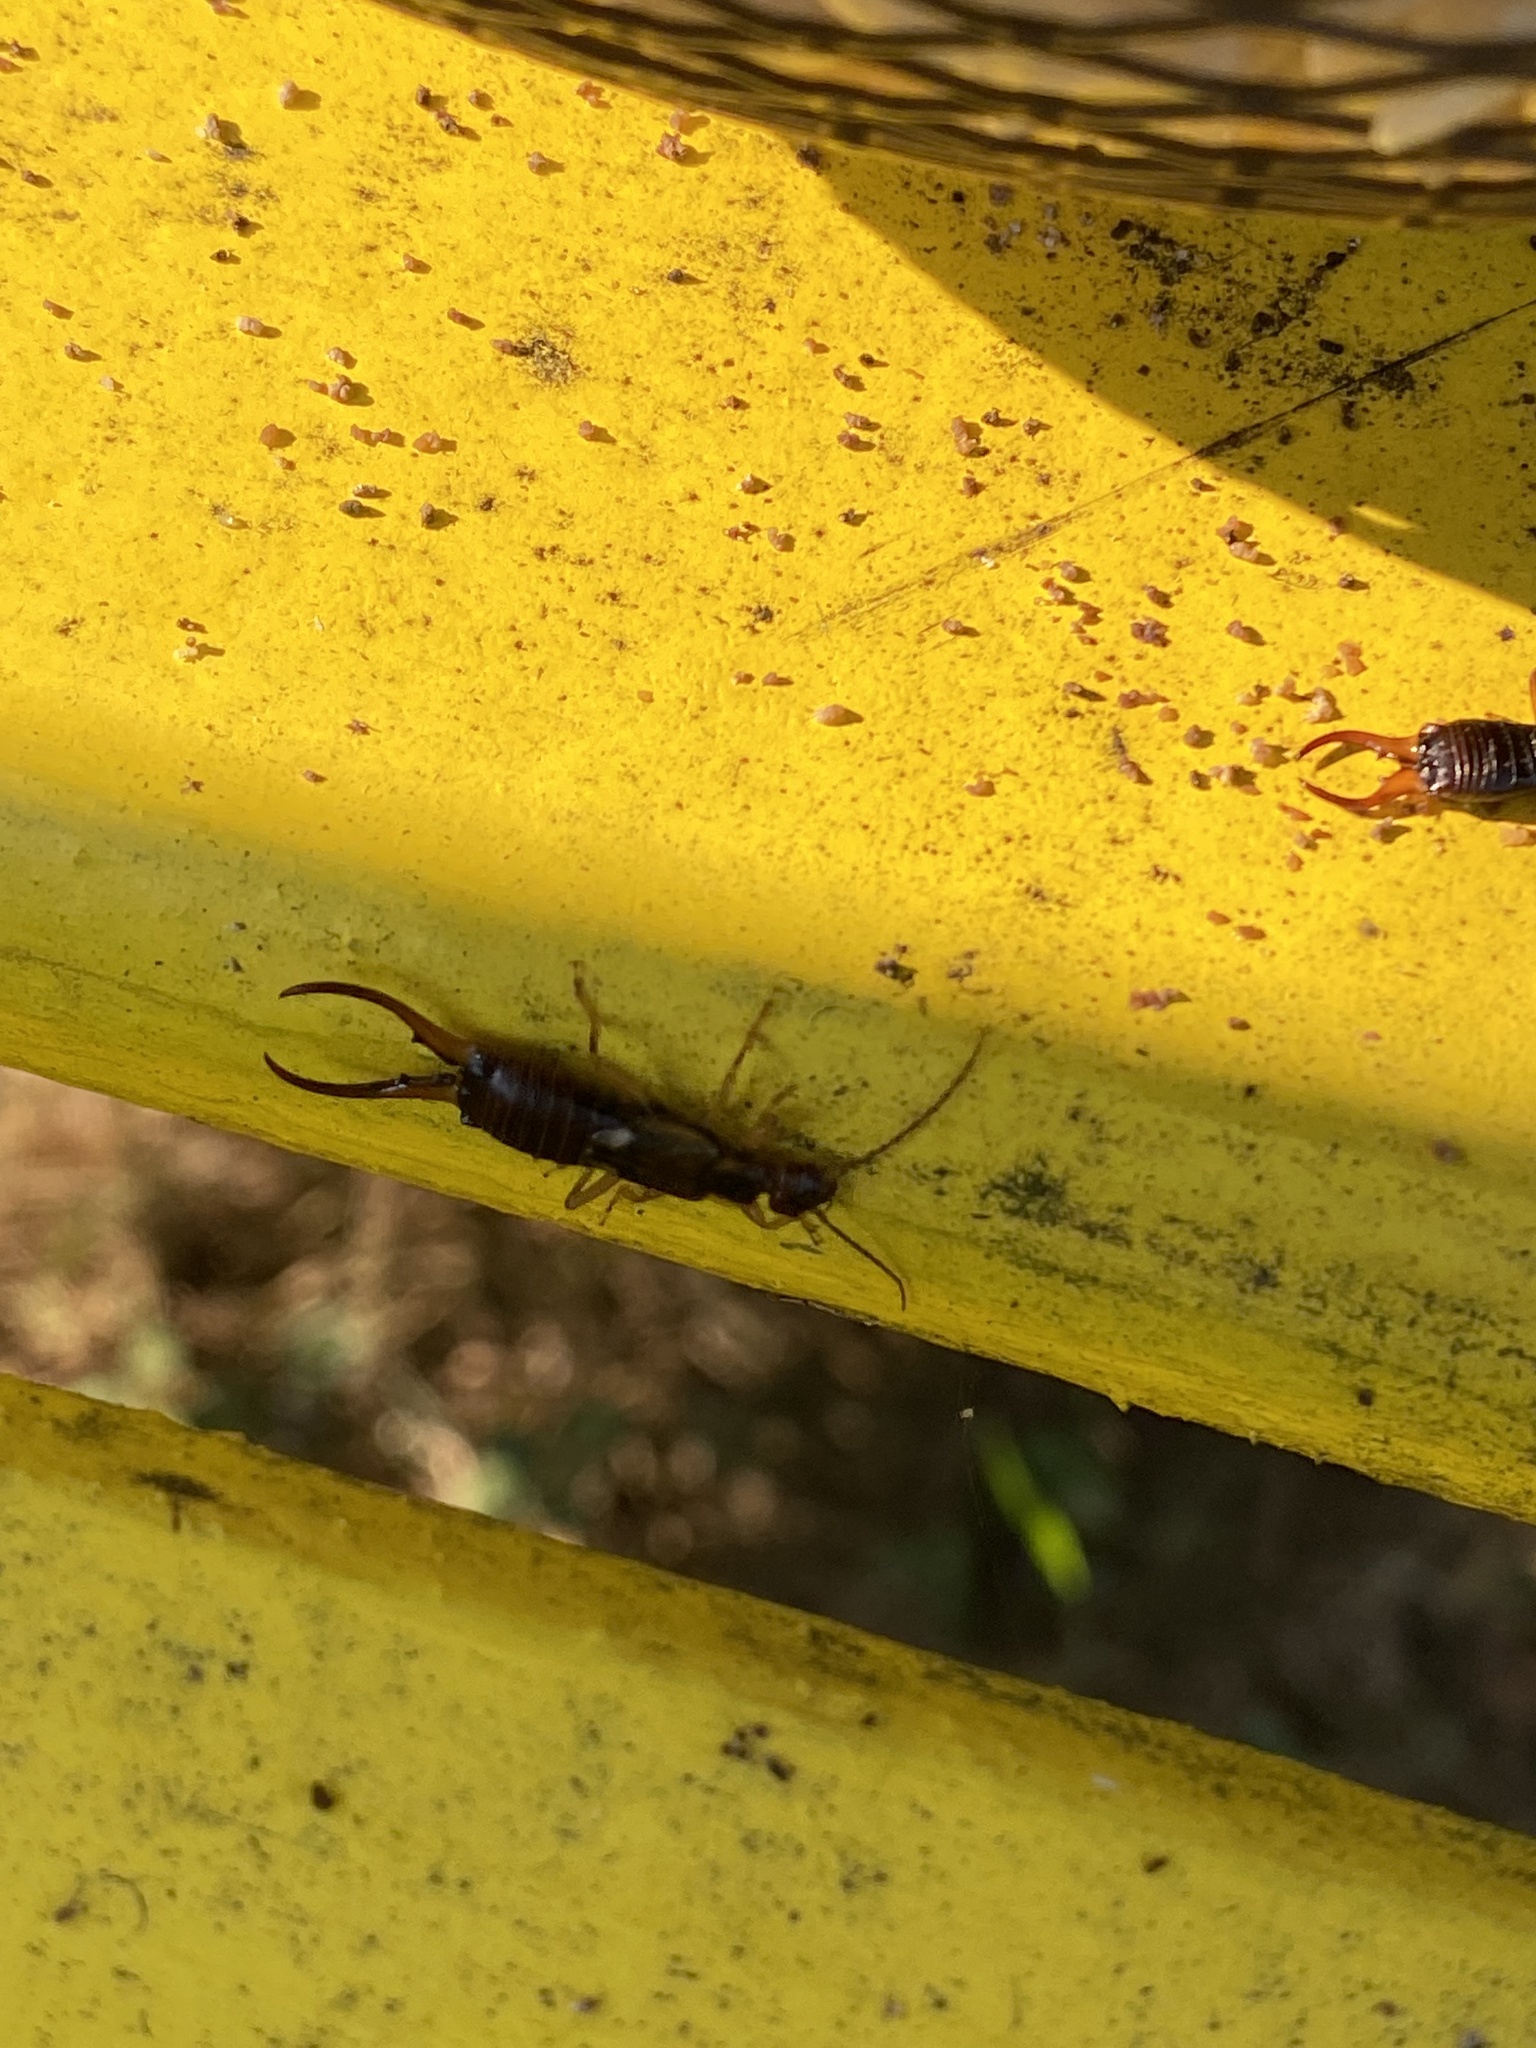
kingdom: Animalia
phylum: Arthropoda
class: Insecta
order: Dermaptera
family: Forficulidae
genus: Forficula
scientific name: Forficula
